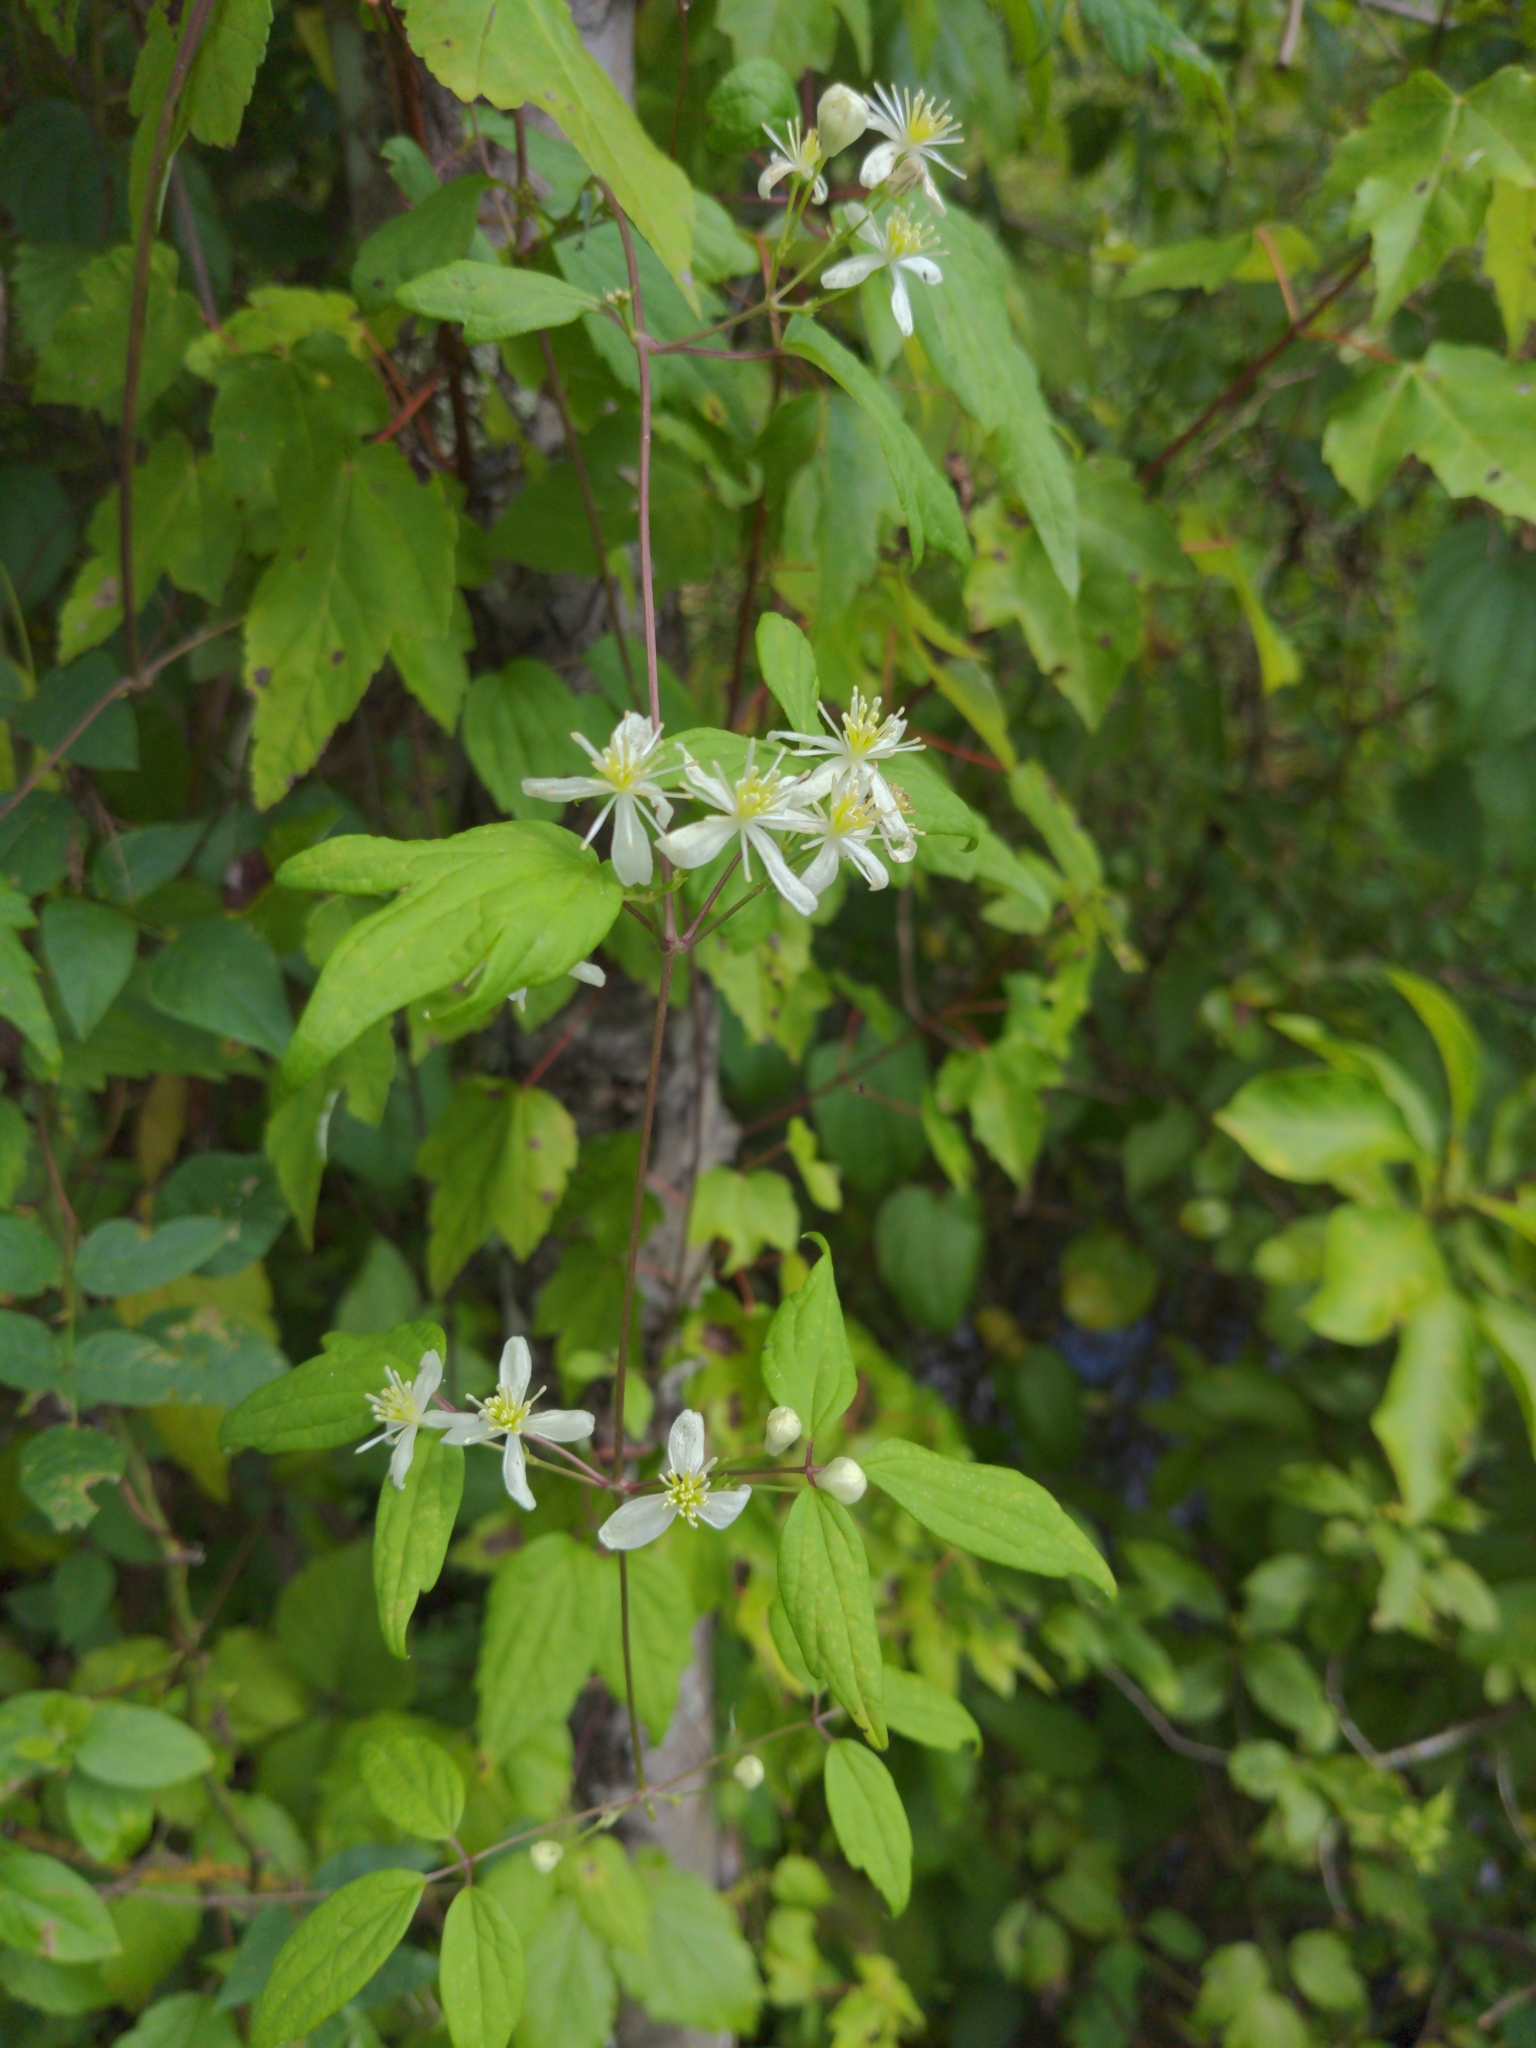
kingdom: Plantae
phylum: Tracheophyta
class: Magnoliopsida
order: Ranunculales
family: Ranunculaceae
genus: Clematis
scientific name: Clematis virginiana
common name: Virgin's-bower
